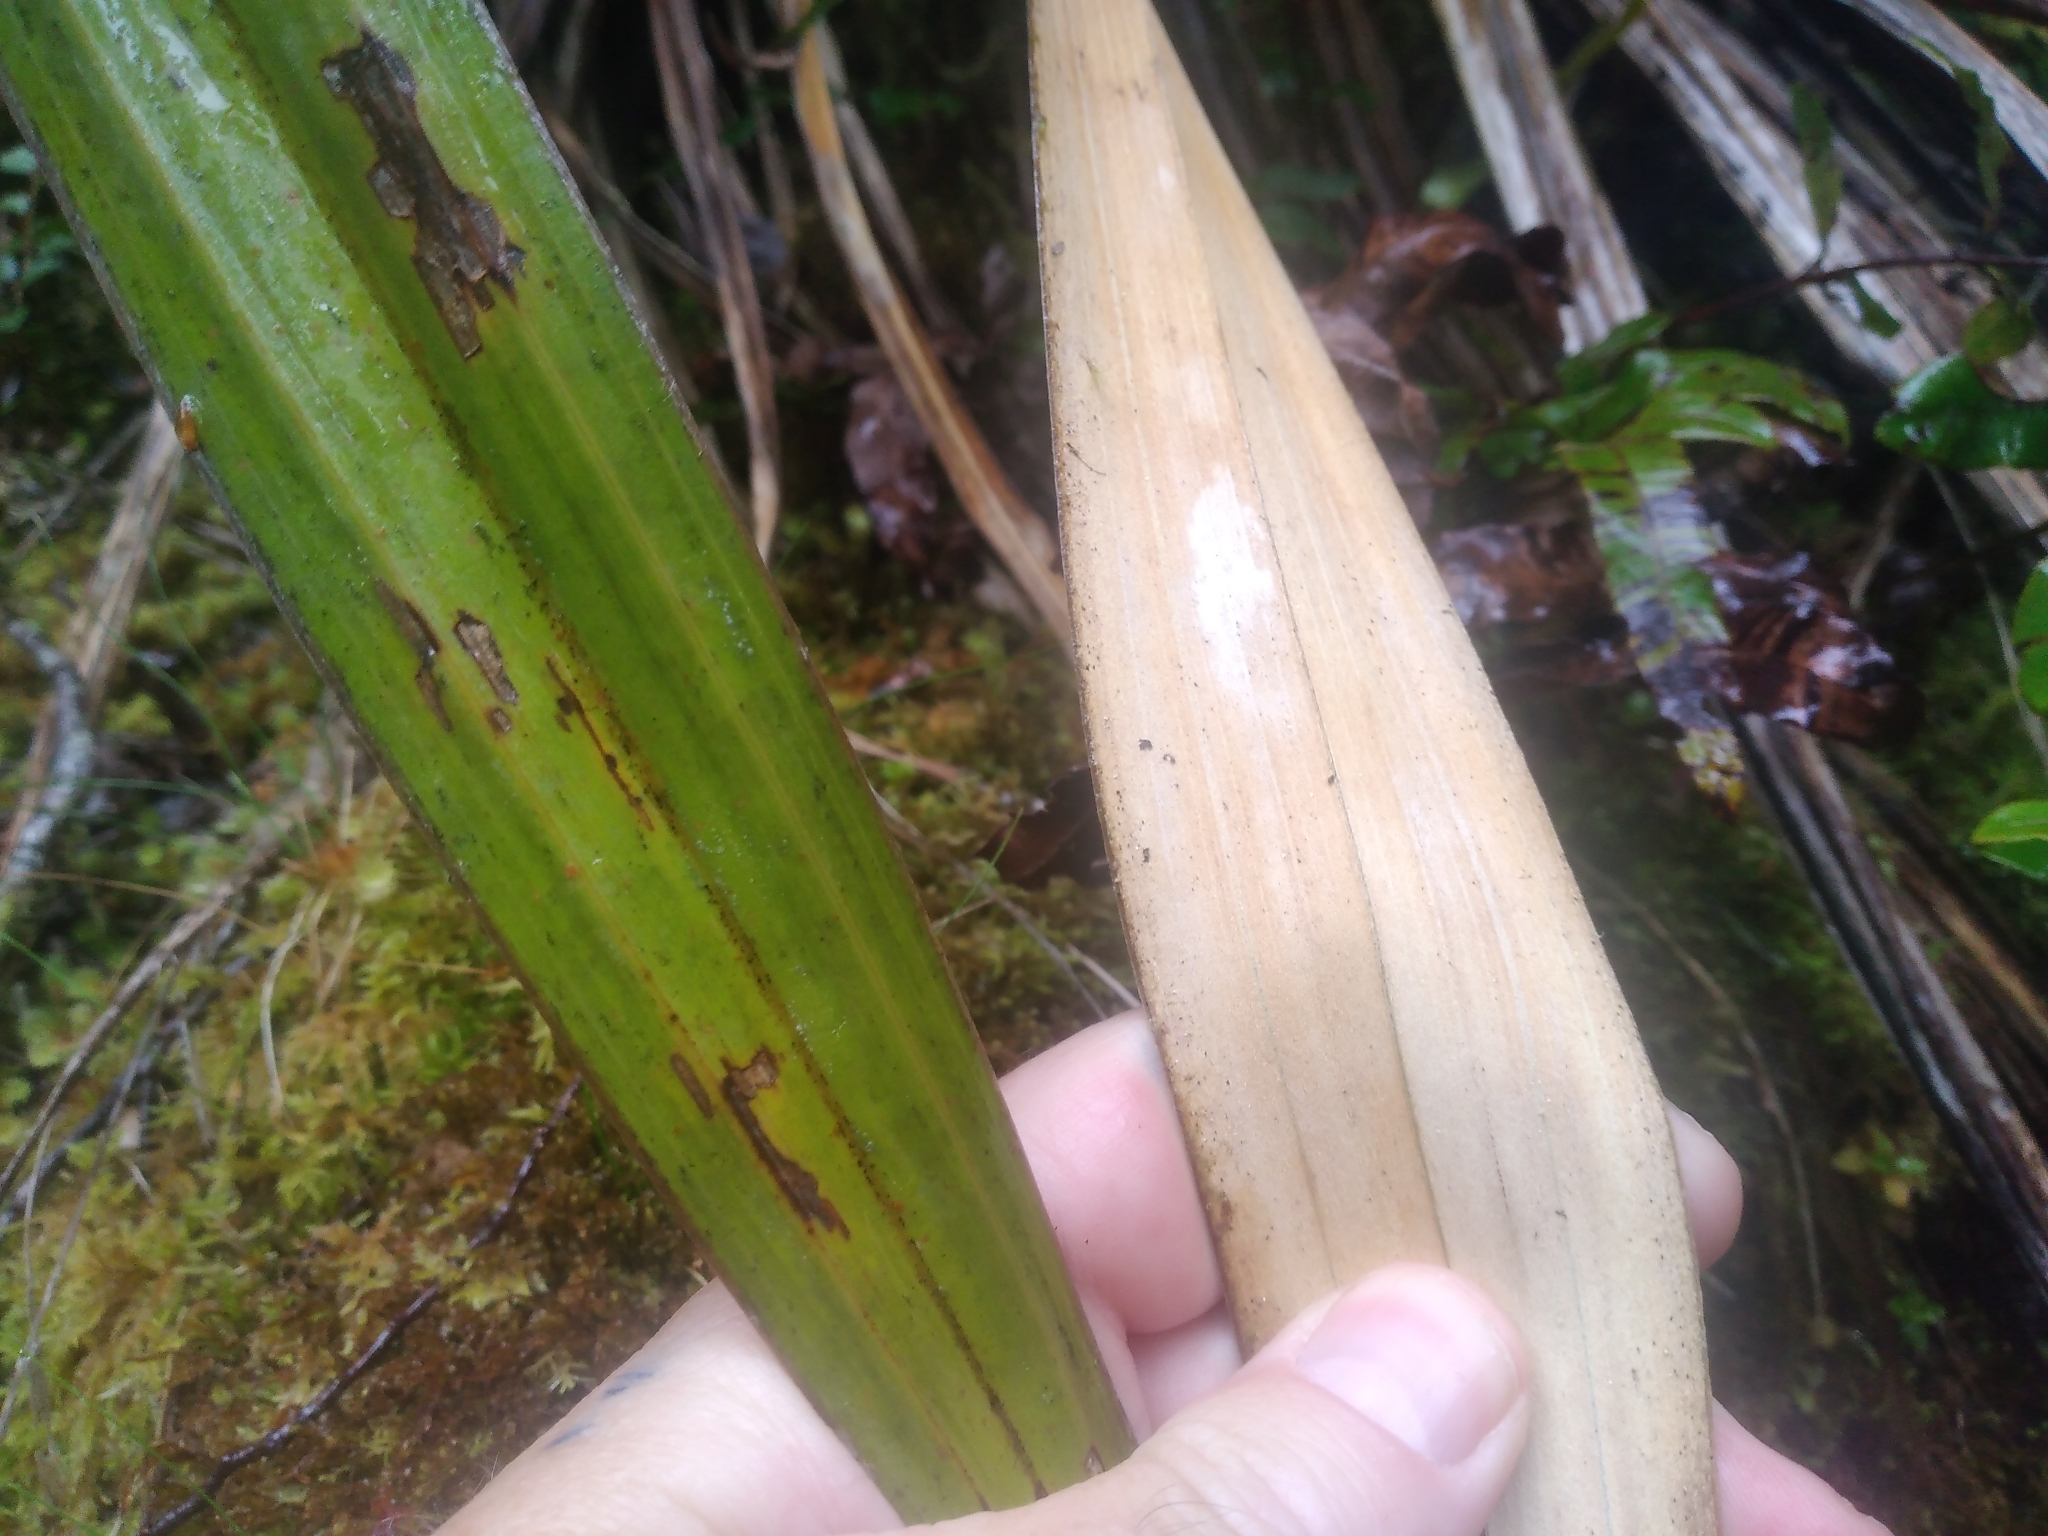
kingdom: Plantae
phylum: Tracheophyta
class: Liliopsida
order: Asparagales
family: Asteliaceae
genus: Astelia
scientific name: Astelia nivicola
